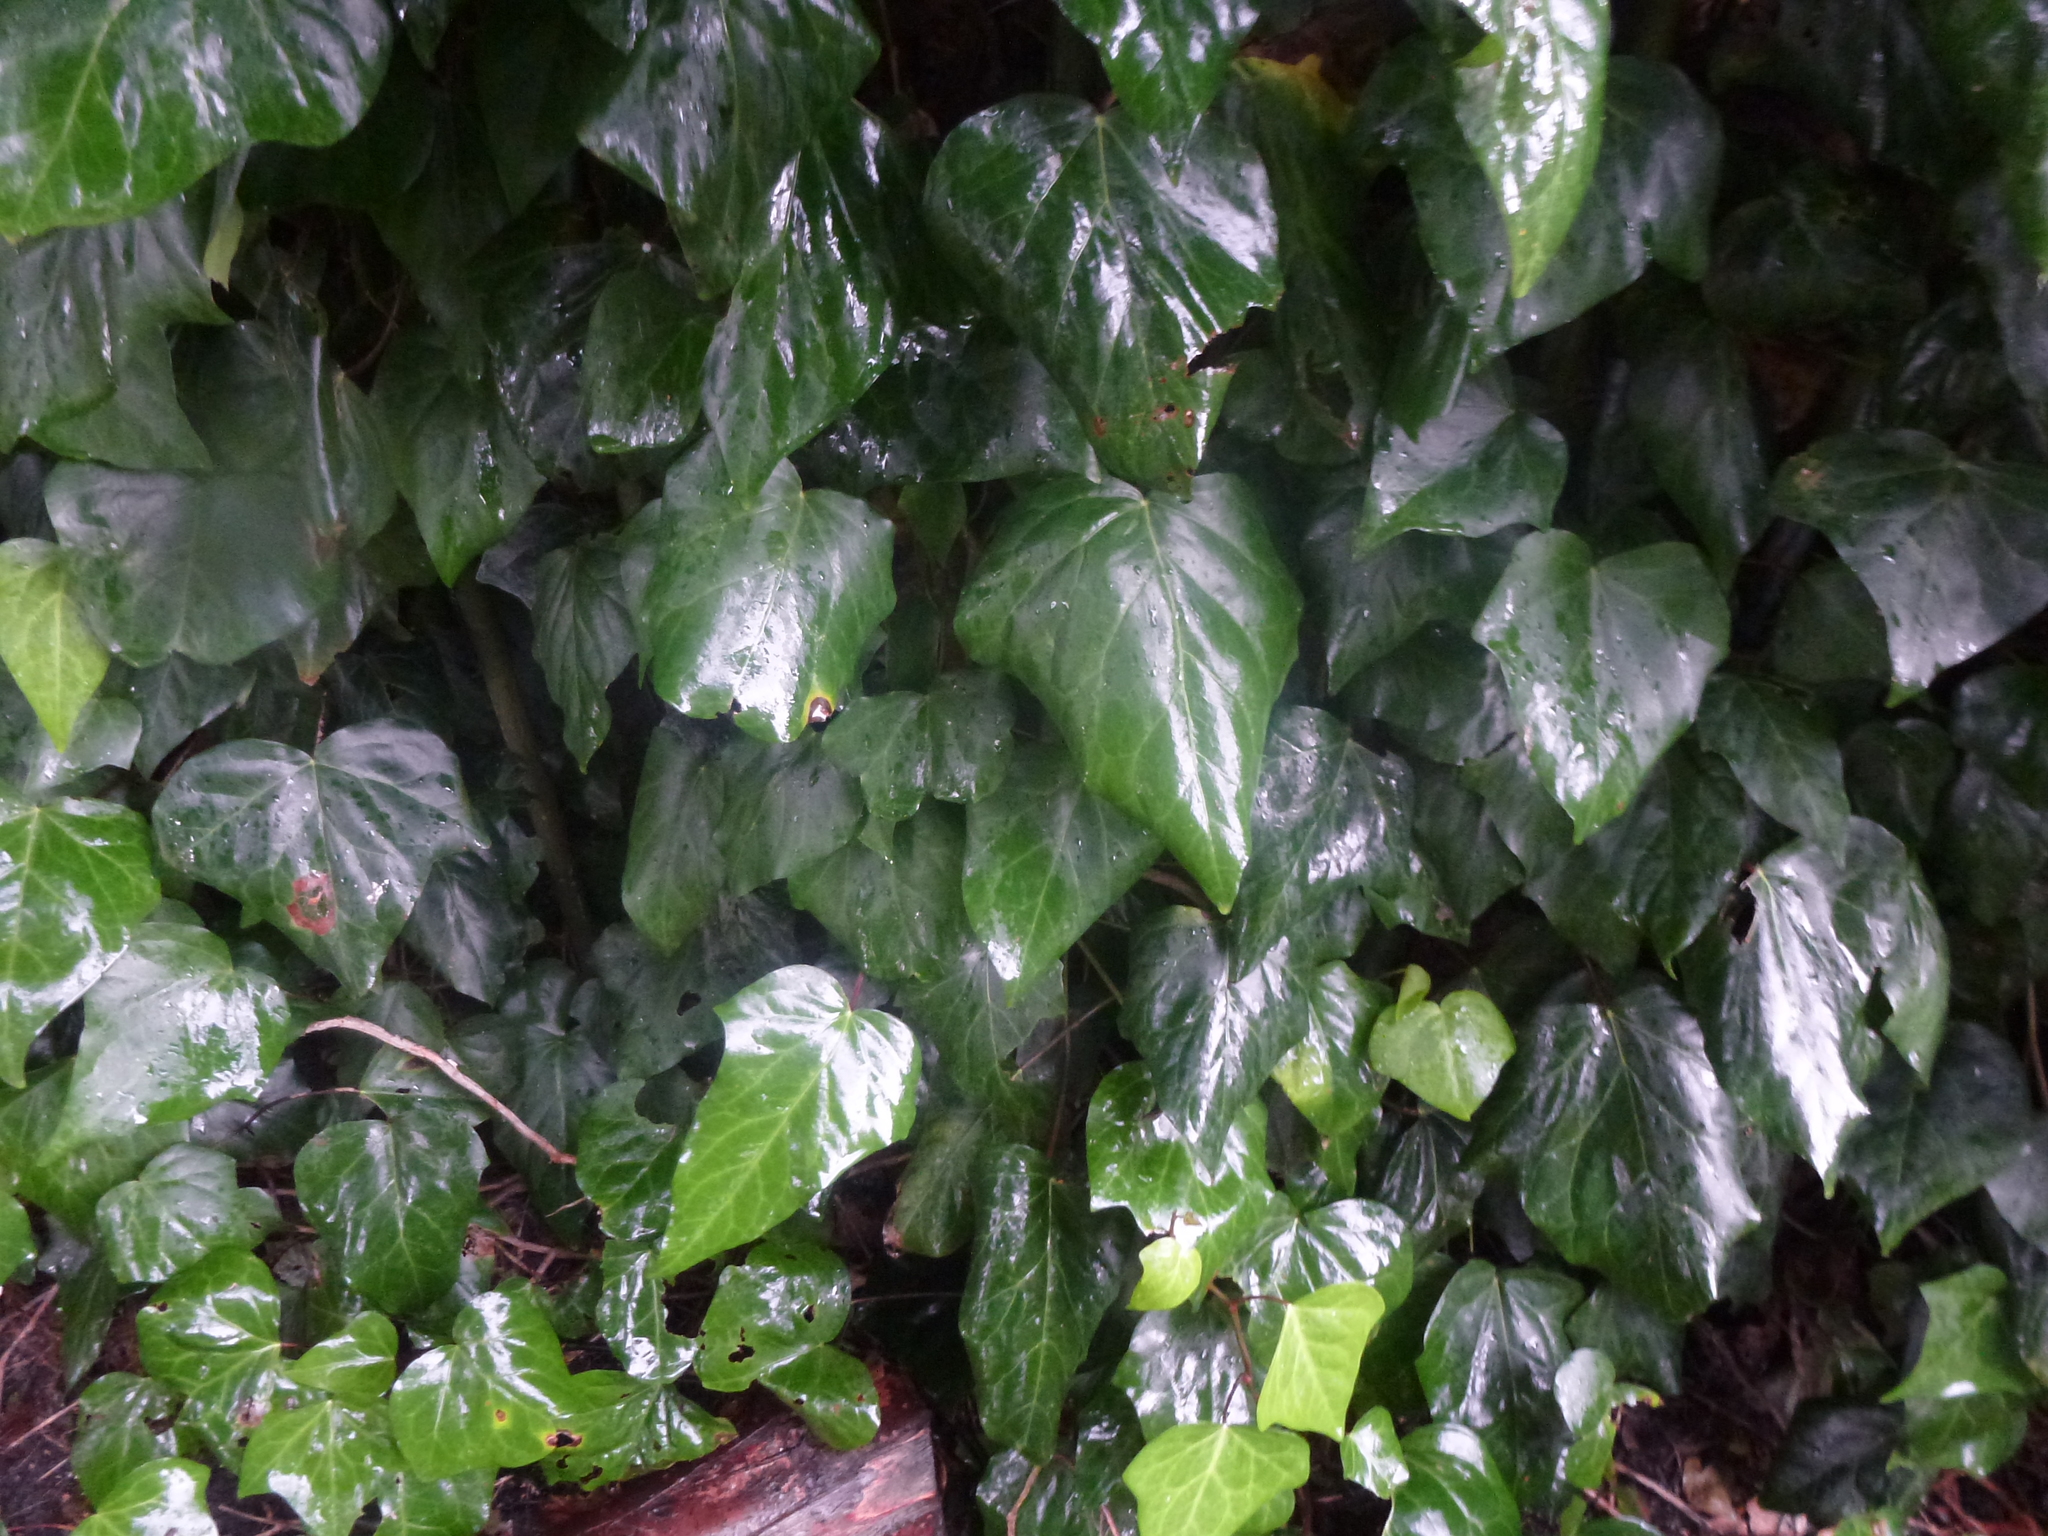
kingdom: Plantae
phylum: Tracheophyta
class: Magnoliopsida
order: Apiales
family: Araliaceae
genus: Hedera
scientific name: Hedera helix
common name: Ivy
